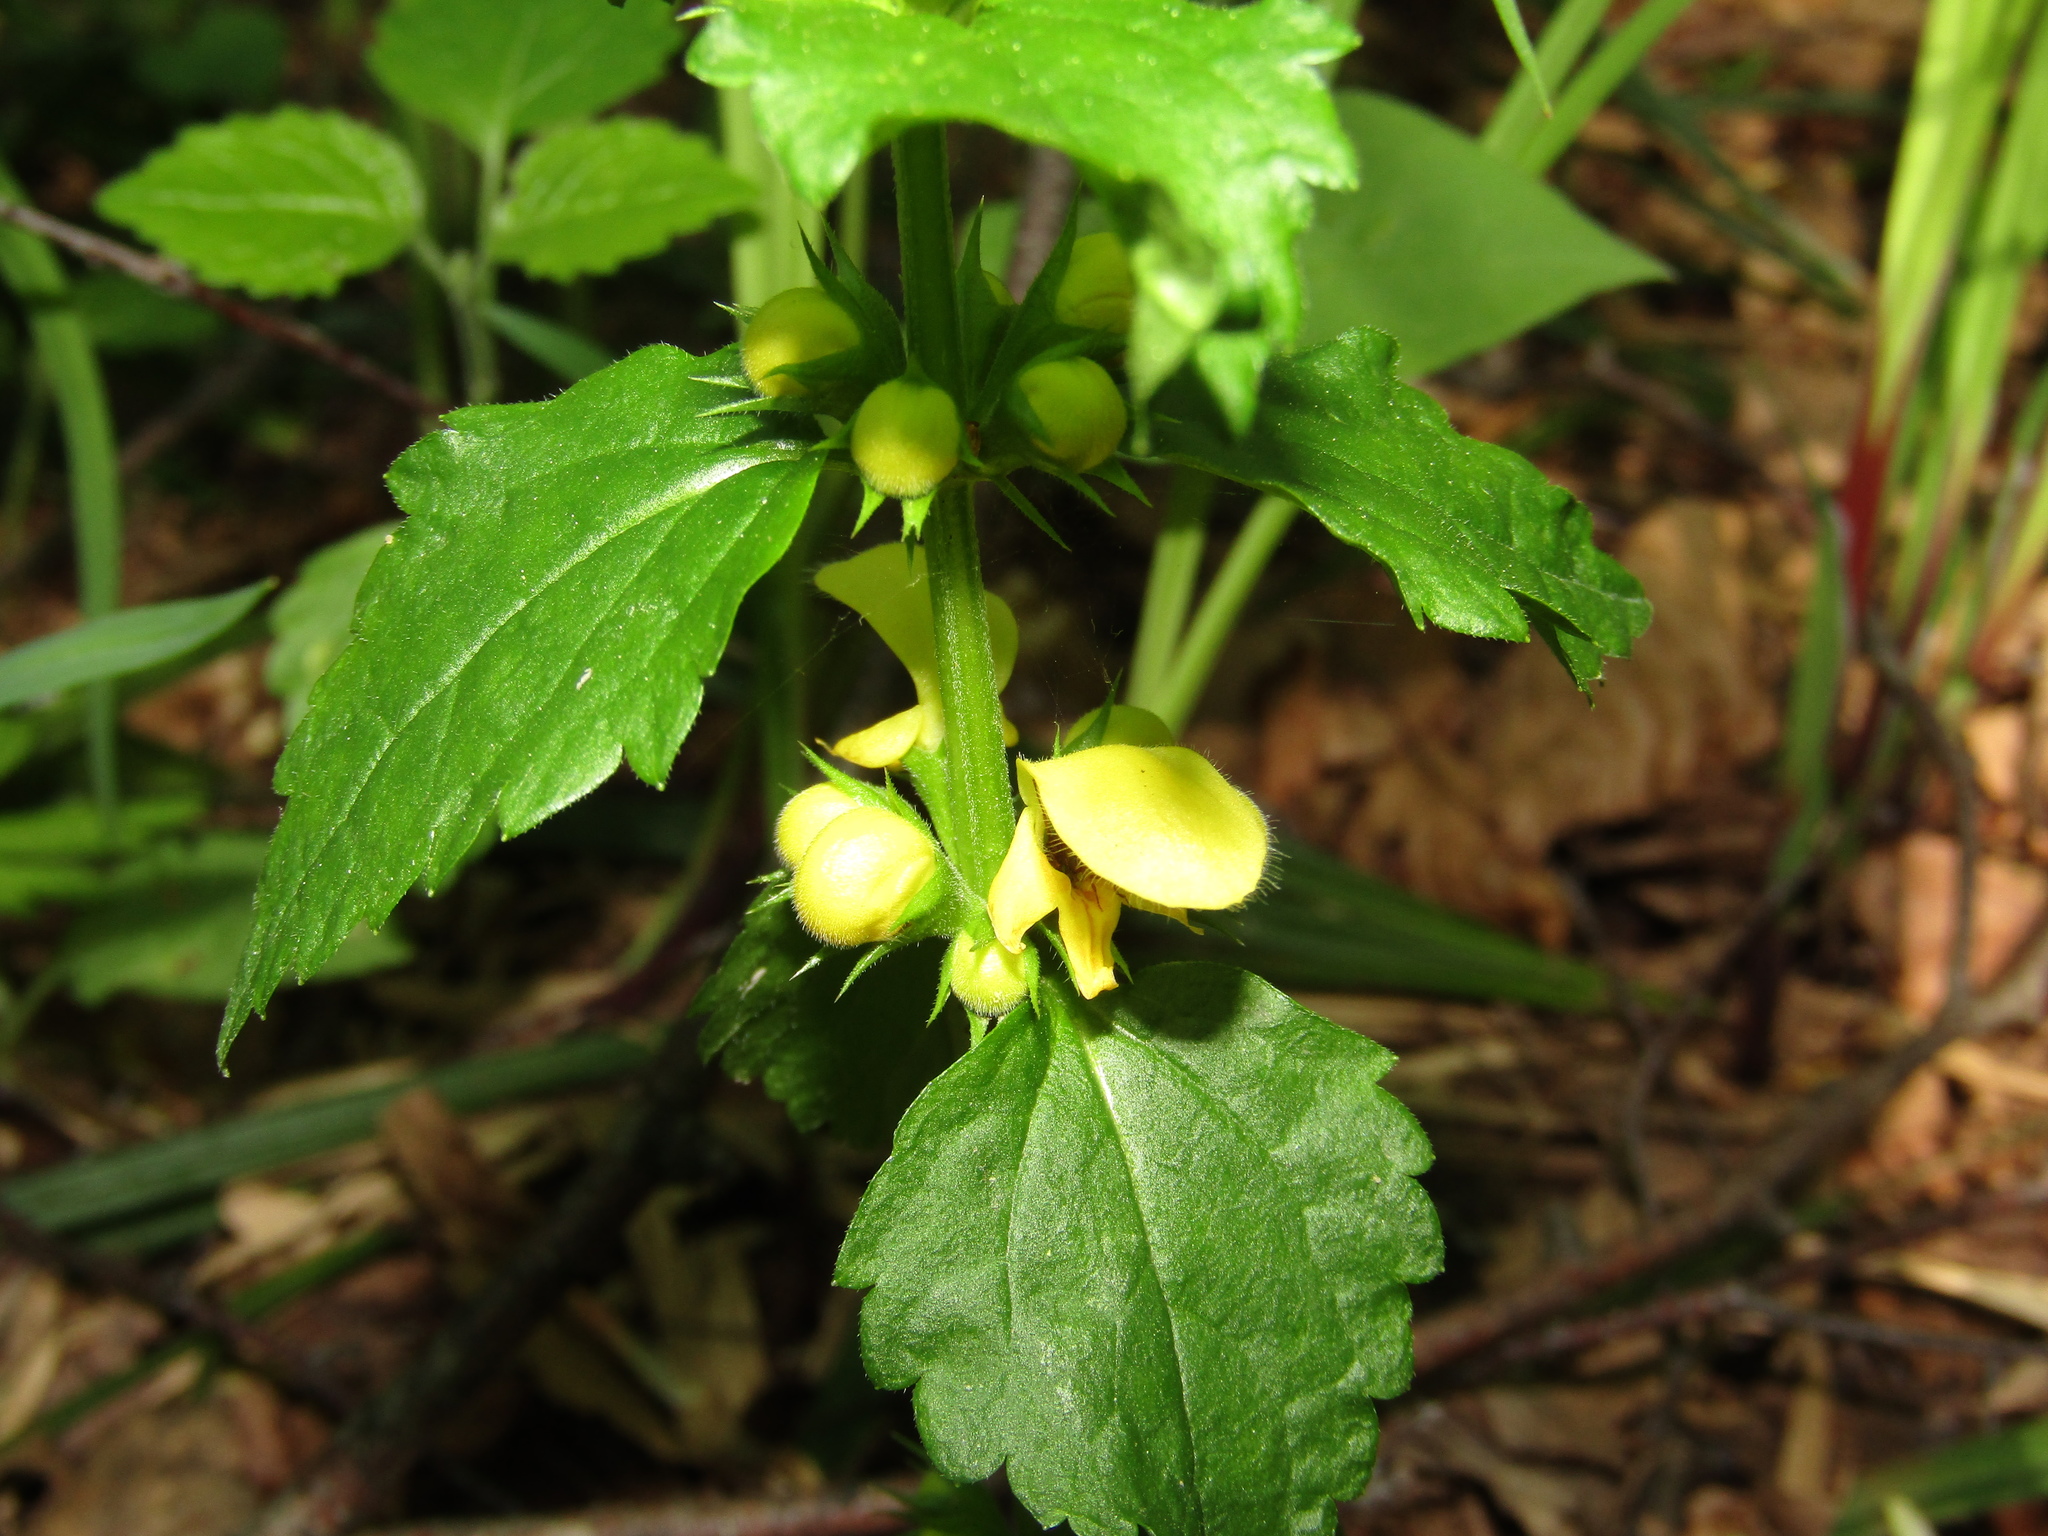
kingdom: Plantae
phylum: Tracheophyta
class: Magnoliopsida
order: Lamiales
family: Lamiaceae
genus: Lamium
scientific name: Lamium galeobdolon
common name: Yellow archangel
